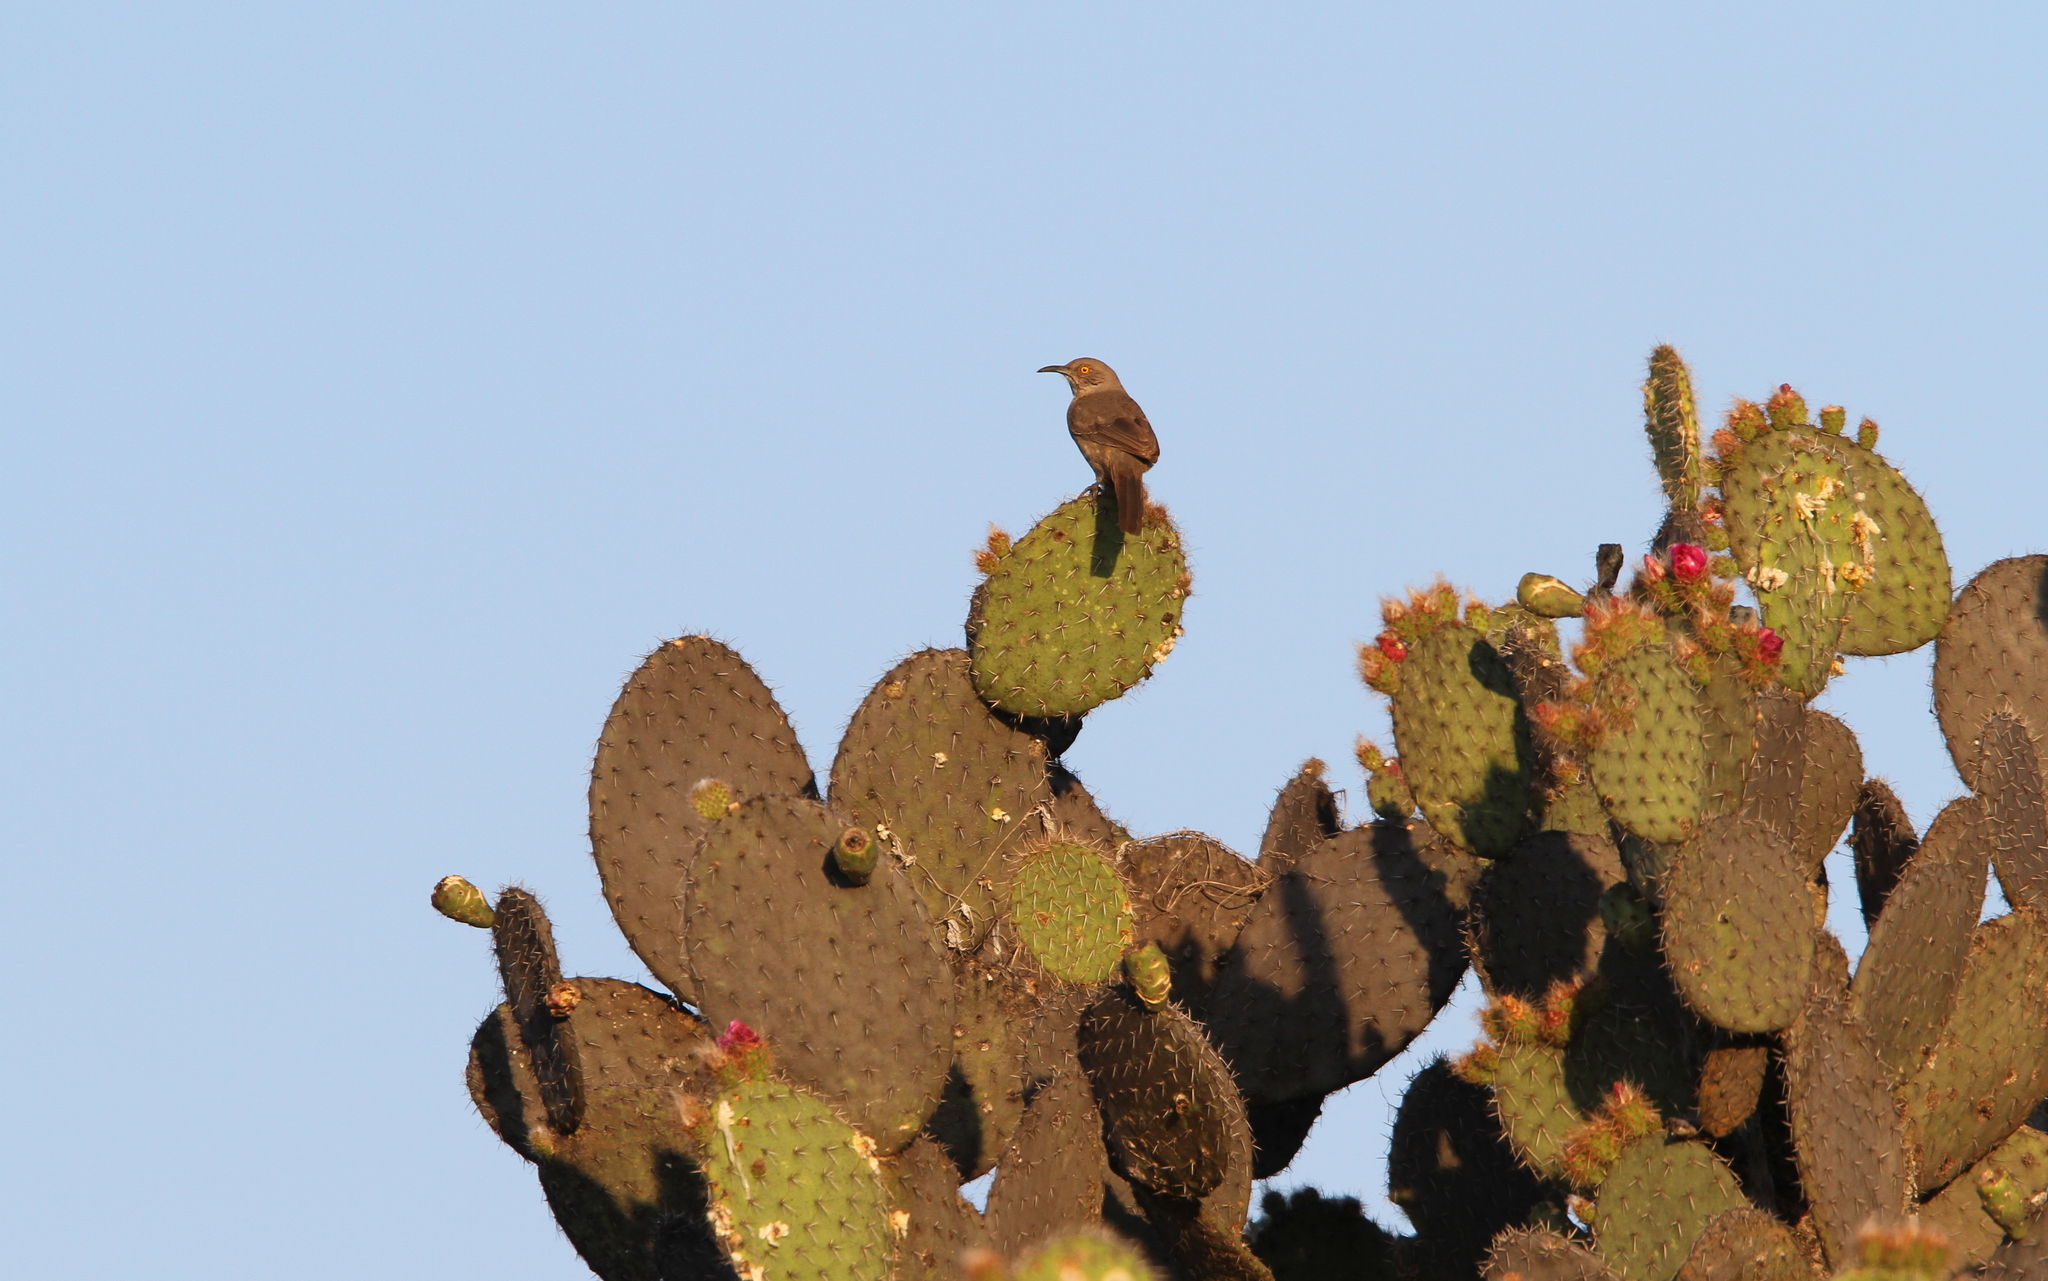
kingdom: Animalia
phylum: Chordata
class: Aves
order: Passeriformes
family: Mimidae
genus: Toxostoma
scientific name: Toxostoma curvirostre
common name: Curve-billed thrasher
